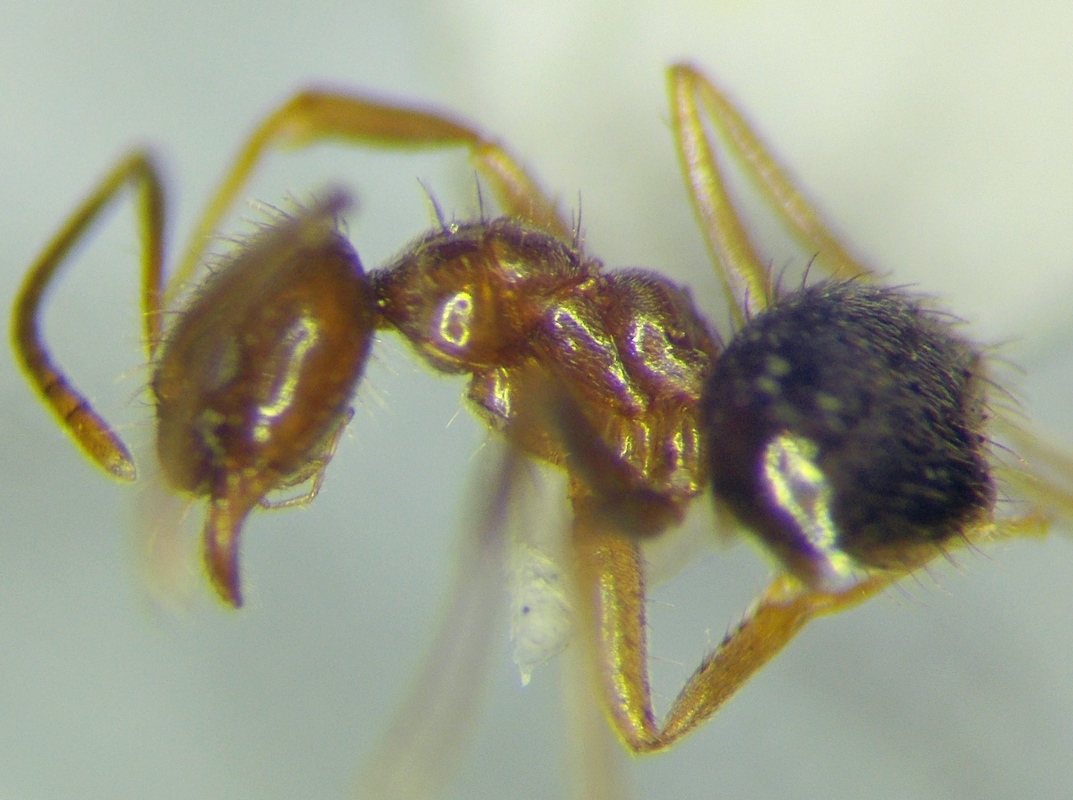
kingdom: Animalia
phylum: Arthropoda
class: Insecta
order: Hymenoptera
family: Formicidae
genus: Paratrechina
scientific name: Paratrechina jaegerskioeldi
